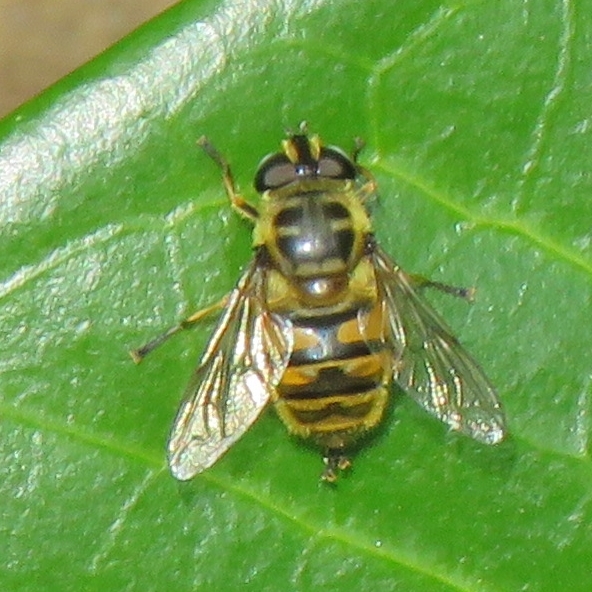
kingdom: Animalia
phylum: Arthropoda
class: Insecta
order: Diptera
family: Syrphidae
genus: Myathropa
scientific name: Myathropa florea
